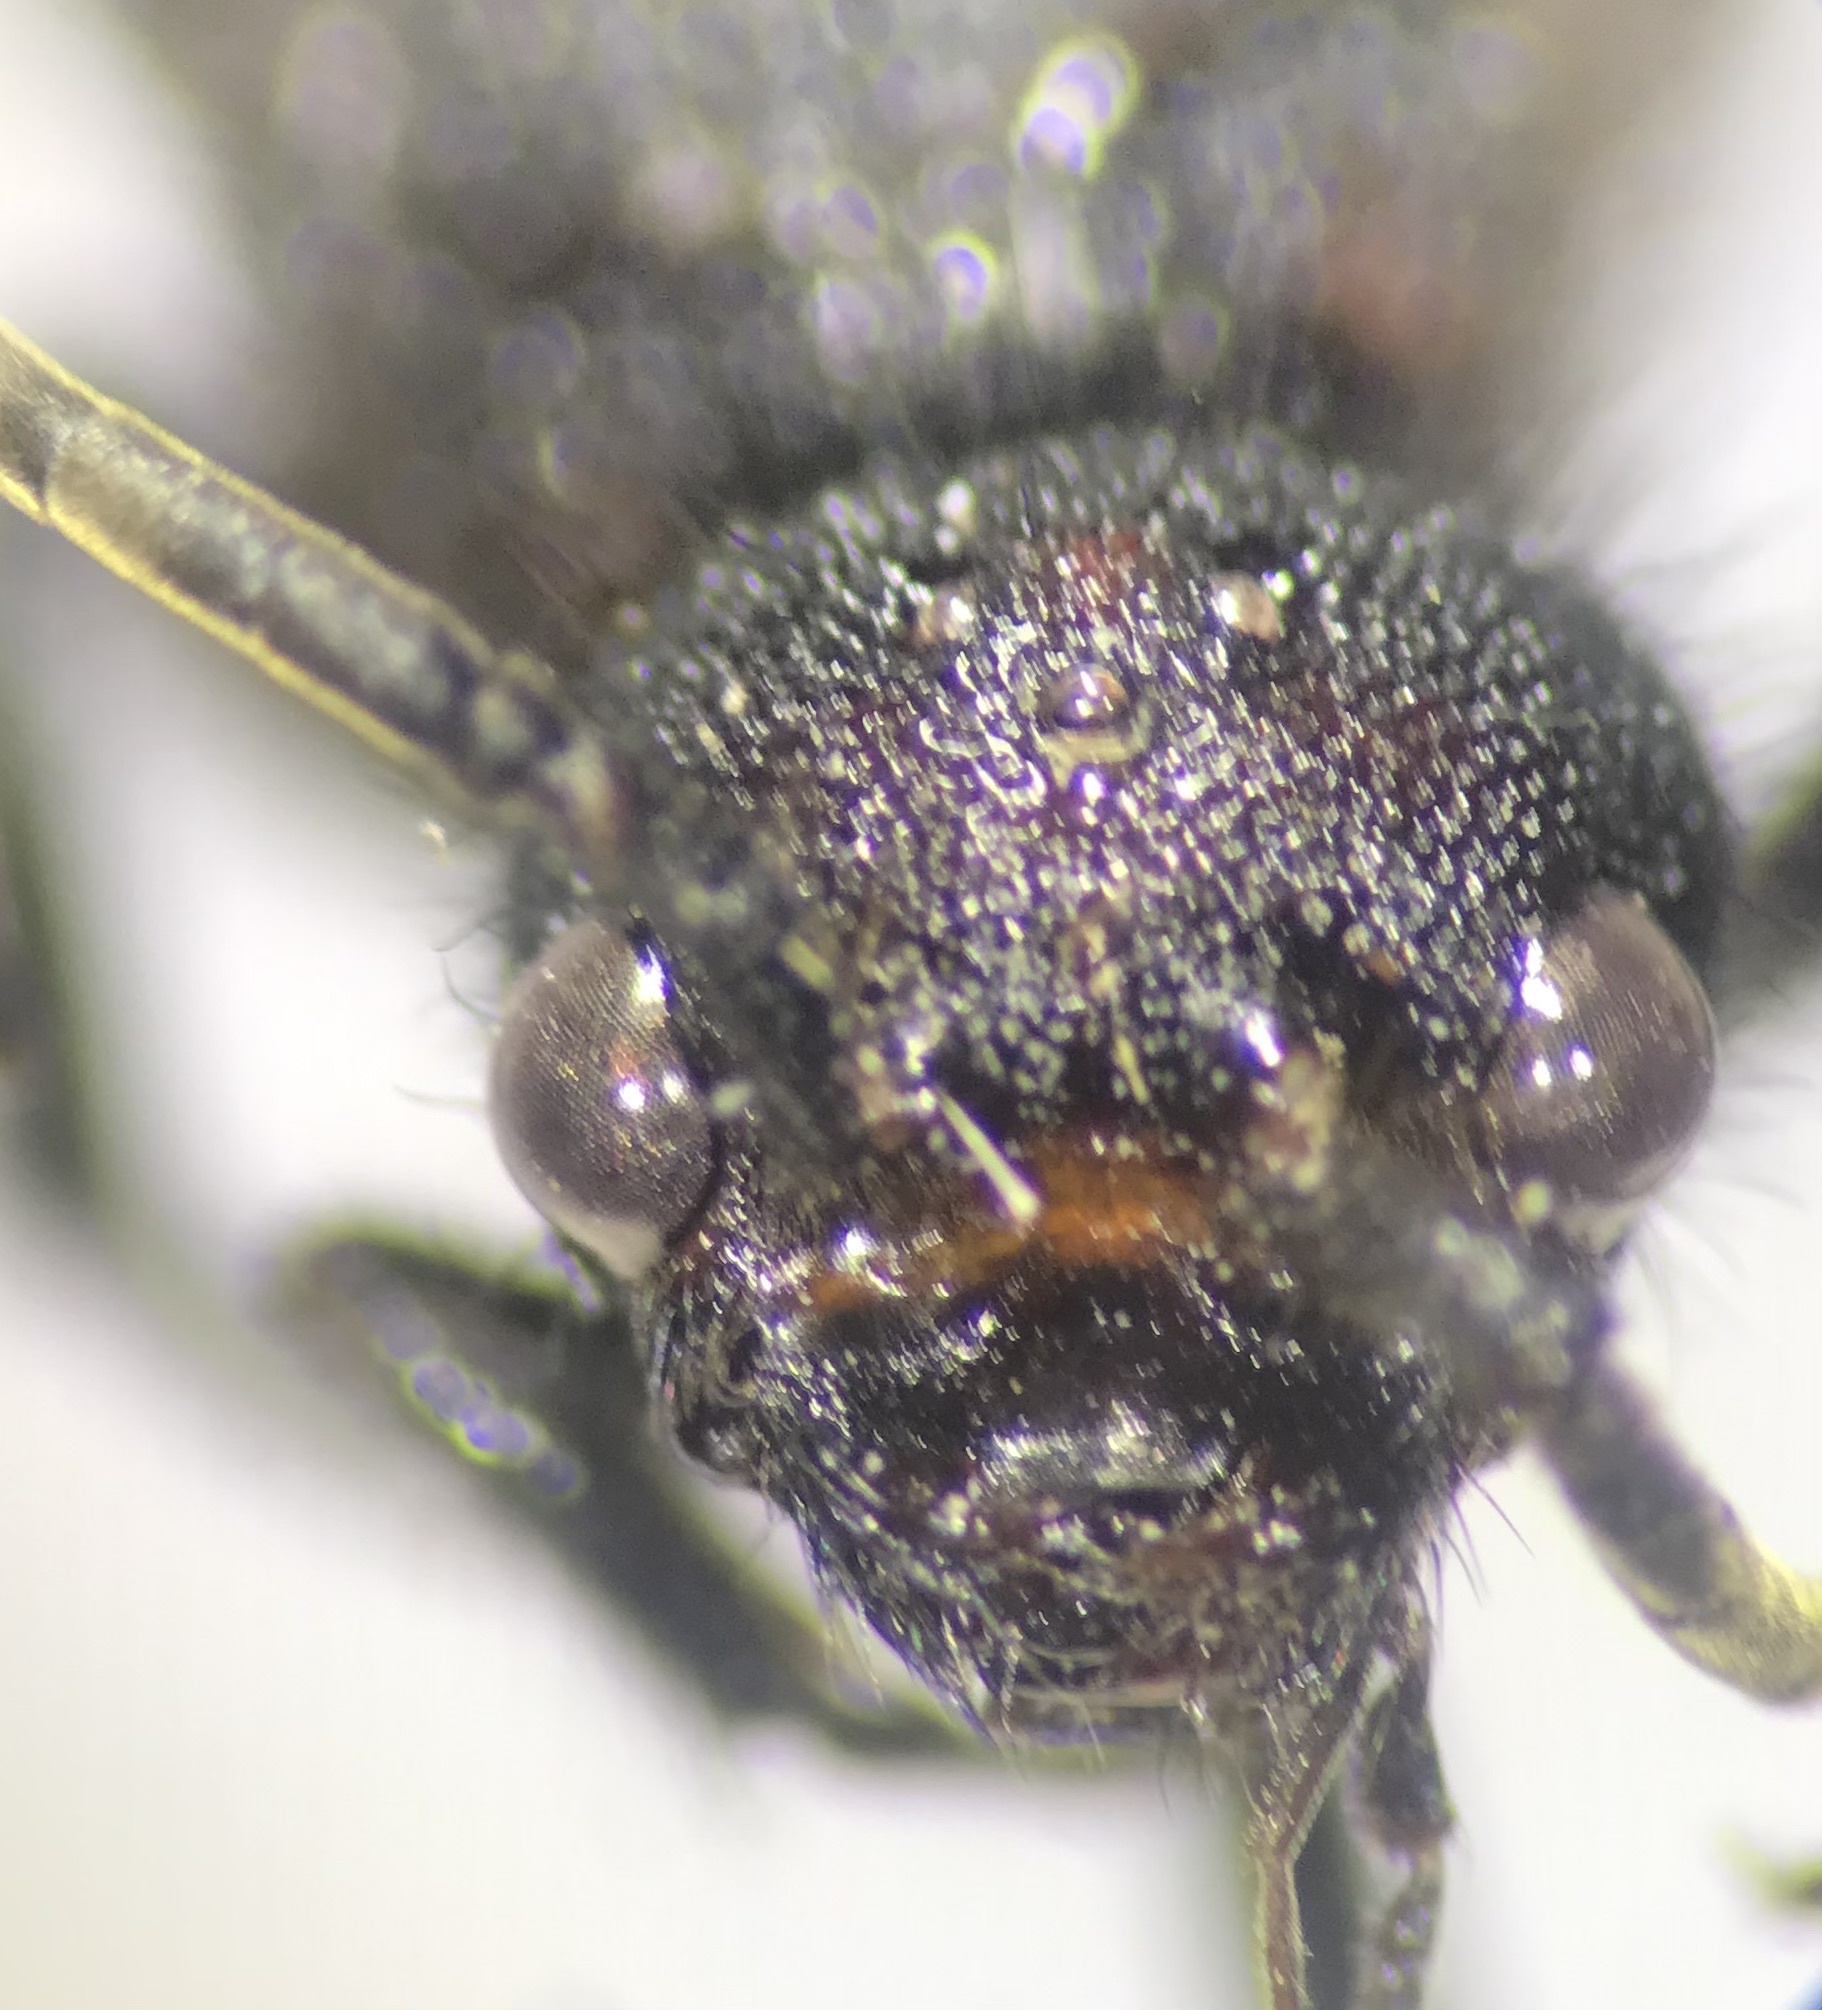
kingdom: Animalia
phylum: Arthropoda
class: Insecta
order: Hymenoptera
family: Mutillidae
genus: Sphaeropthalma
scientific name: Sphaeropthalma
